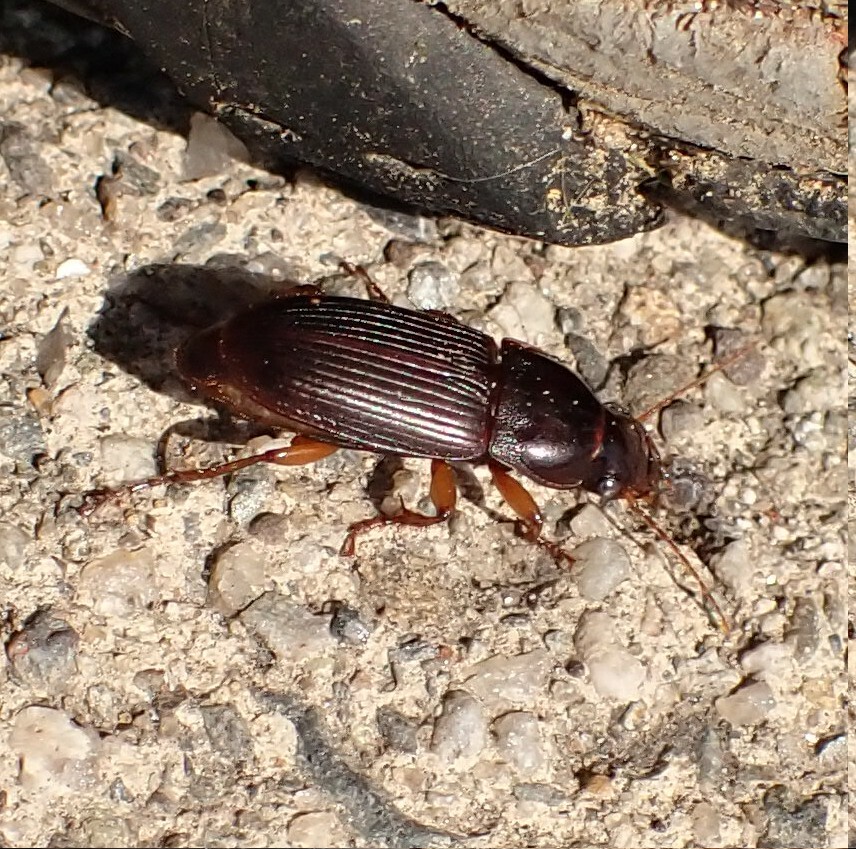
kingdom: Animalia
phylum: Arthropoda
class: Insecta
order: Coleoptera
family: Carabidae
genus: Harpalus
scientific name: Harpalus pensylvanicus
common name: Pennsylvania dingy ground beetle
